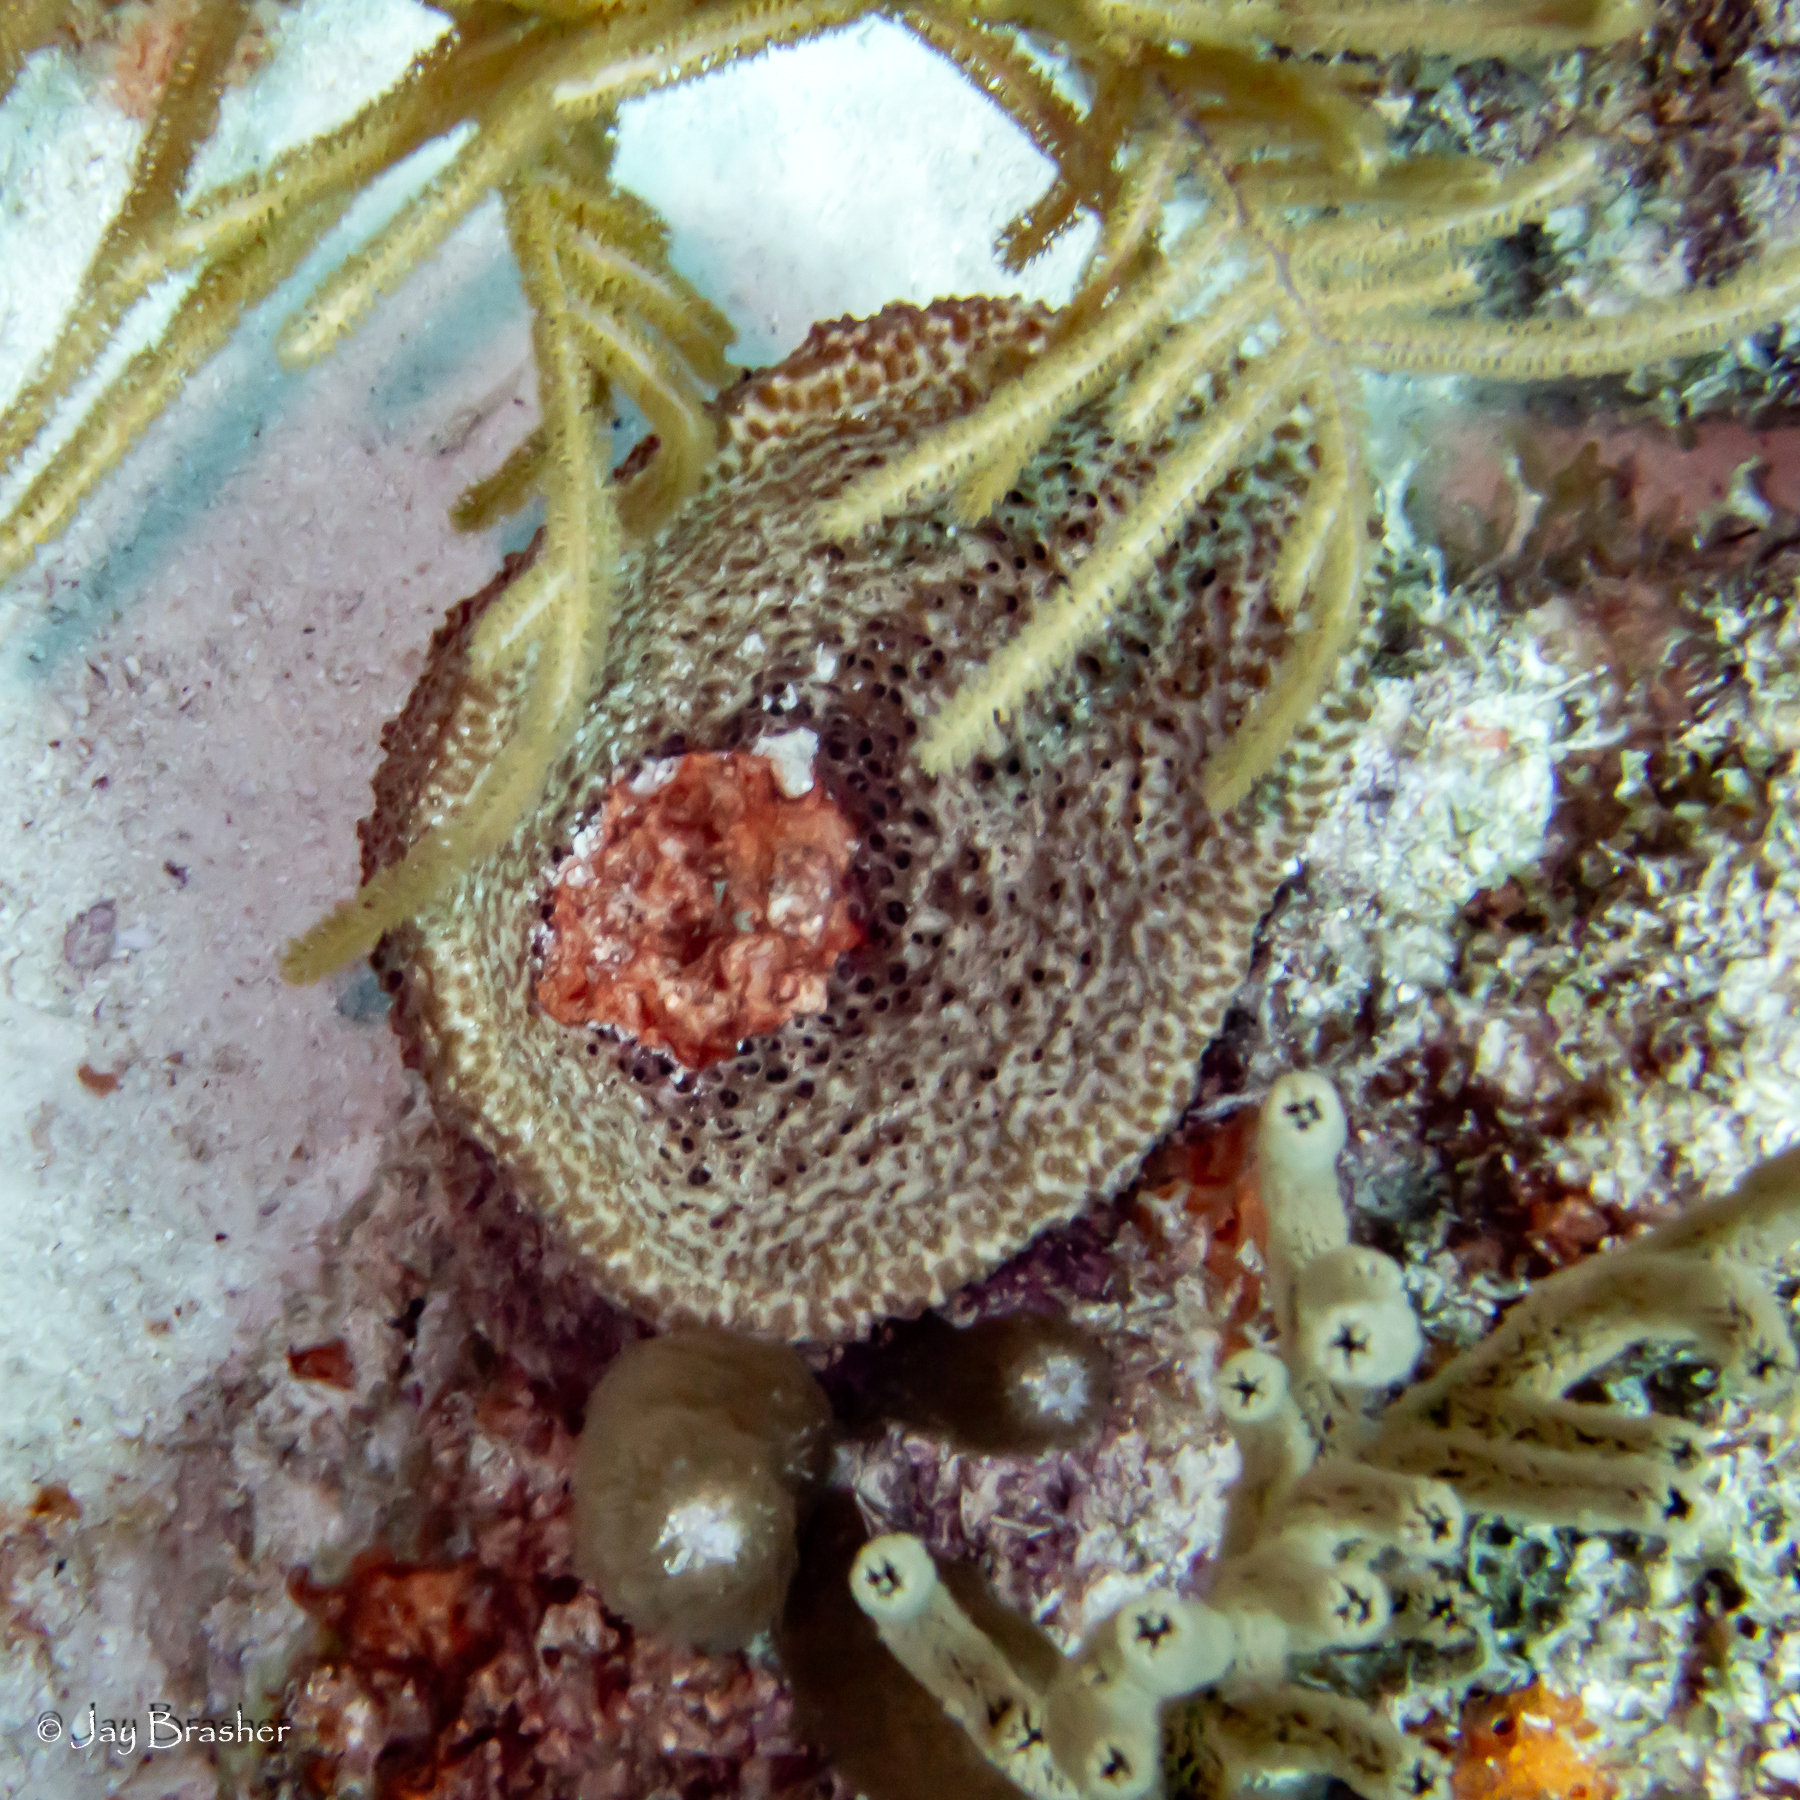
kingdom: Animalia
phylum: Porifera
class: Demospongiae
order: Dictyoceratida
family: Irciniidae
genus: Ircinia
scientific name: Ircinia campana
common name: Vase sponge
